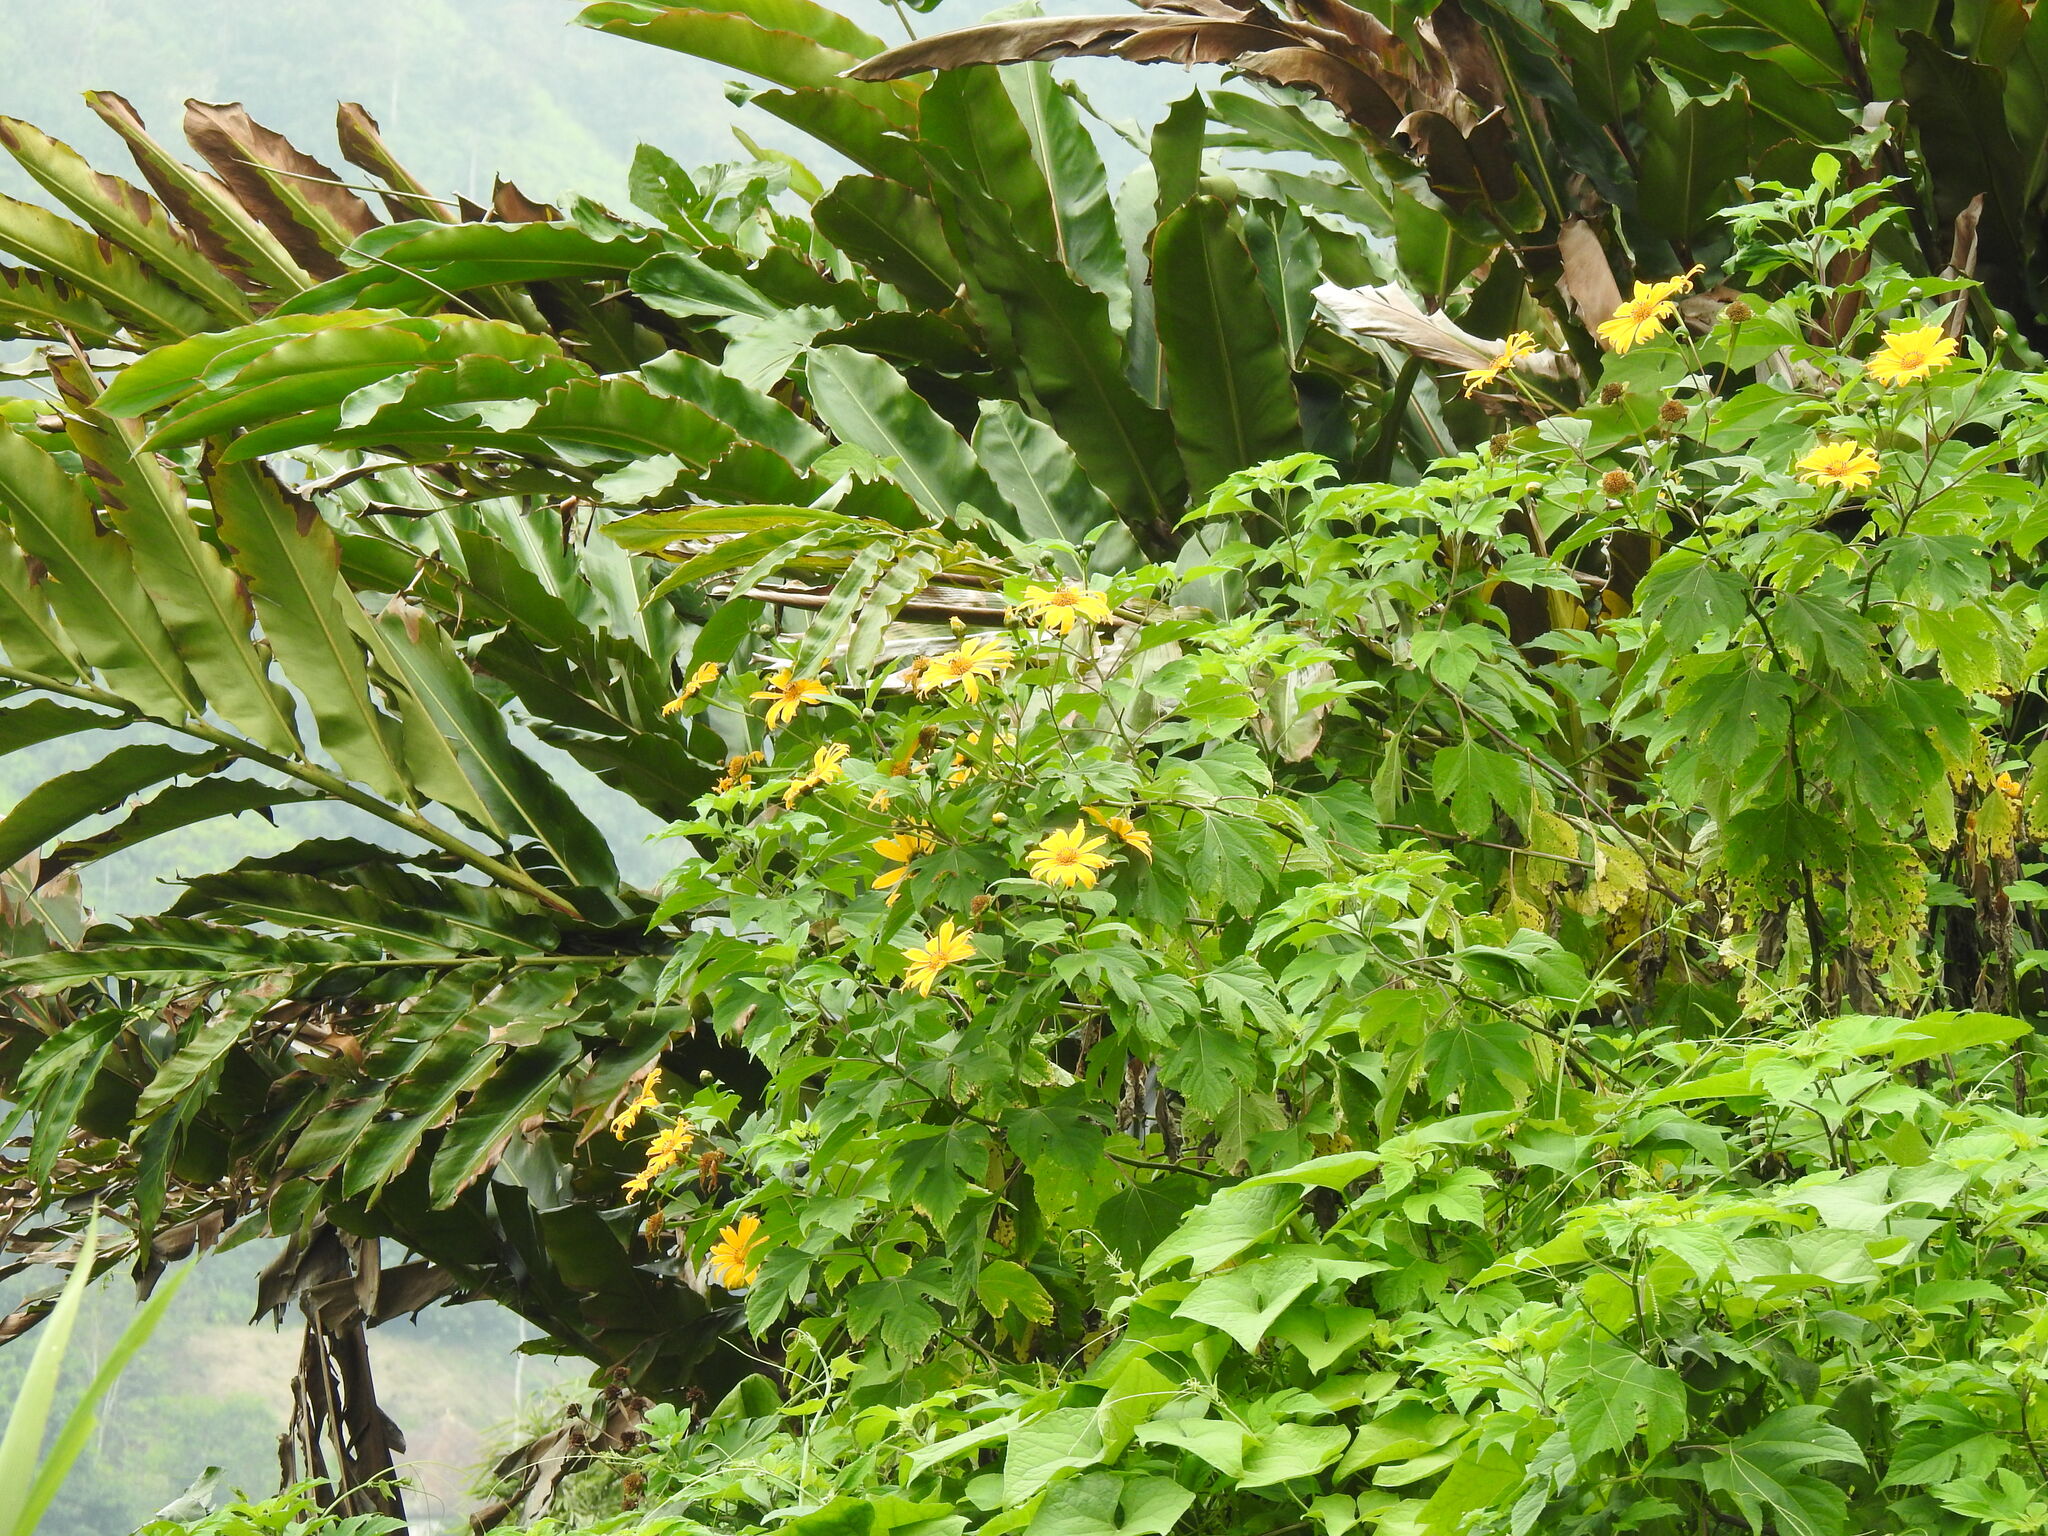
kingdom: Plantae
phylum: Tracheophyta
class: Magnoliopsida
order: Asterales
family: Asteraceae
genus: Tithonia
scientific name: Tithonia diversifolia
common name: Tree marigold
